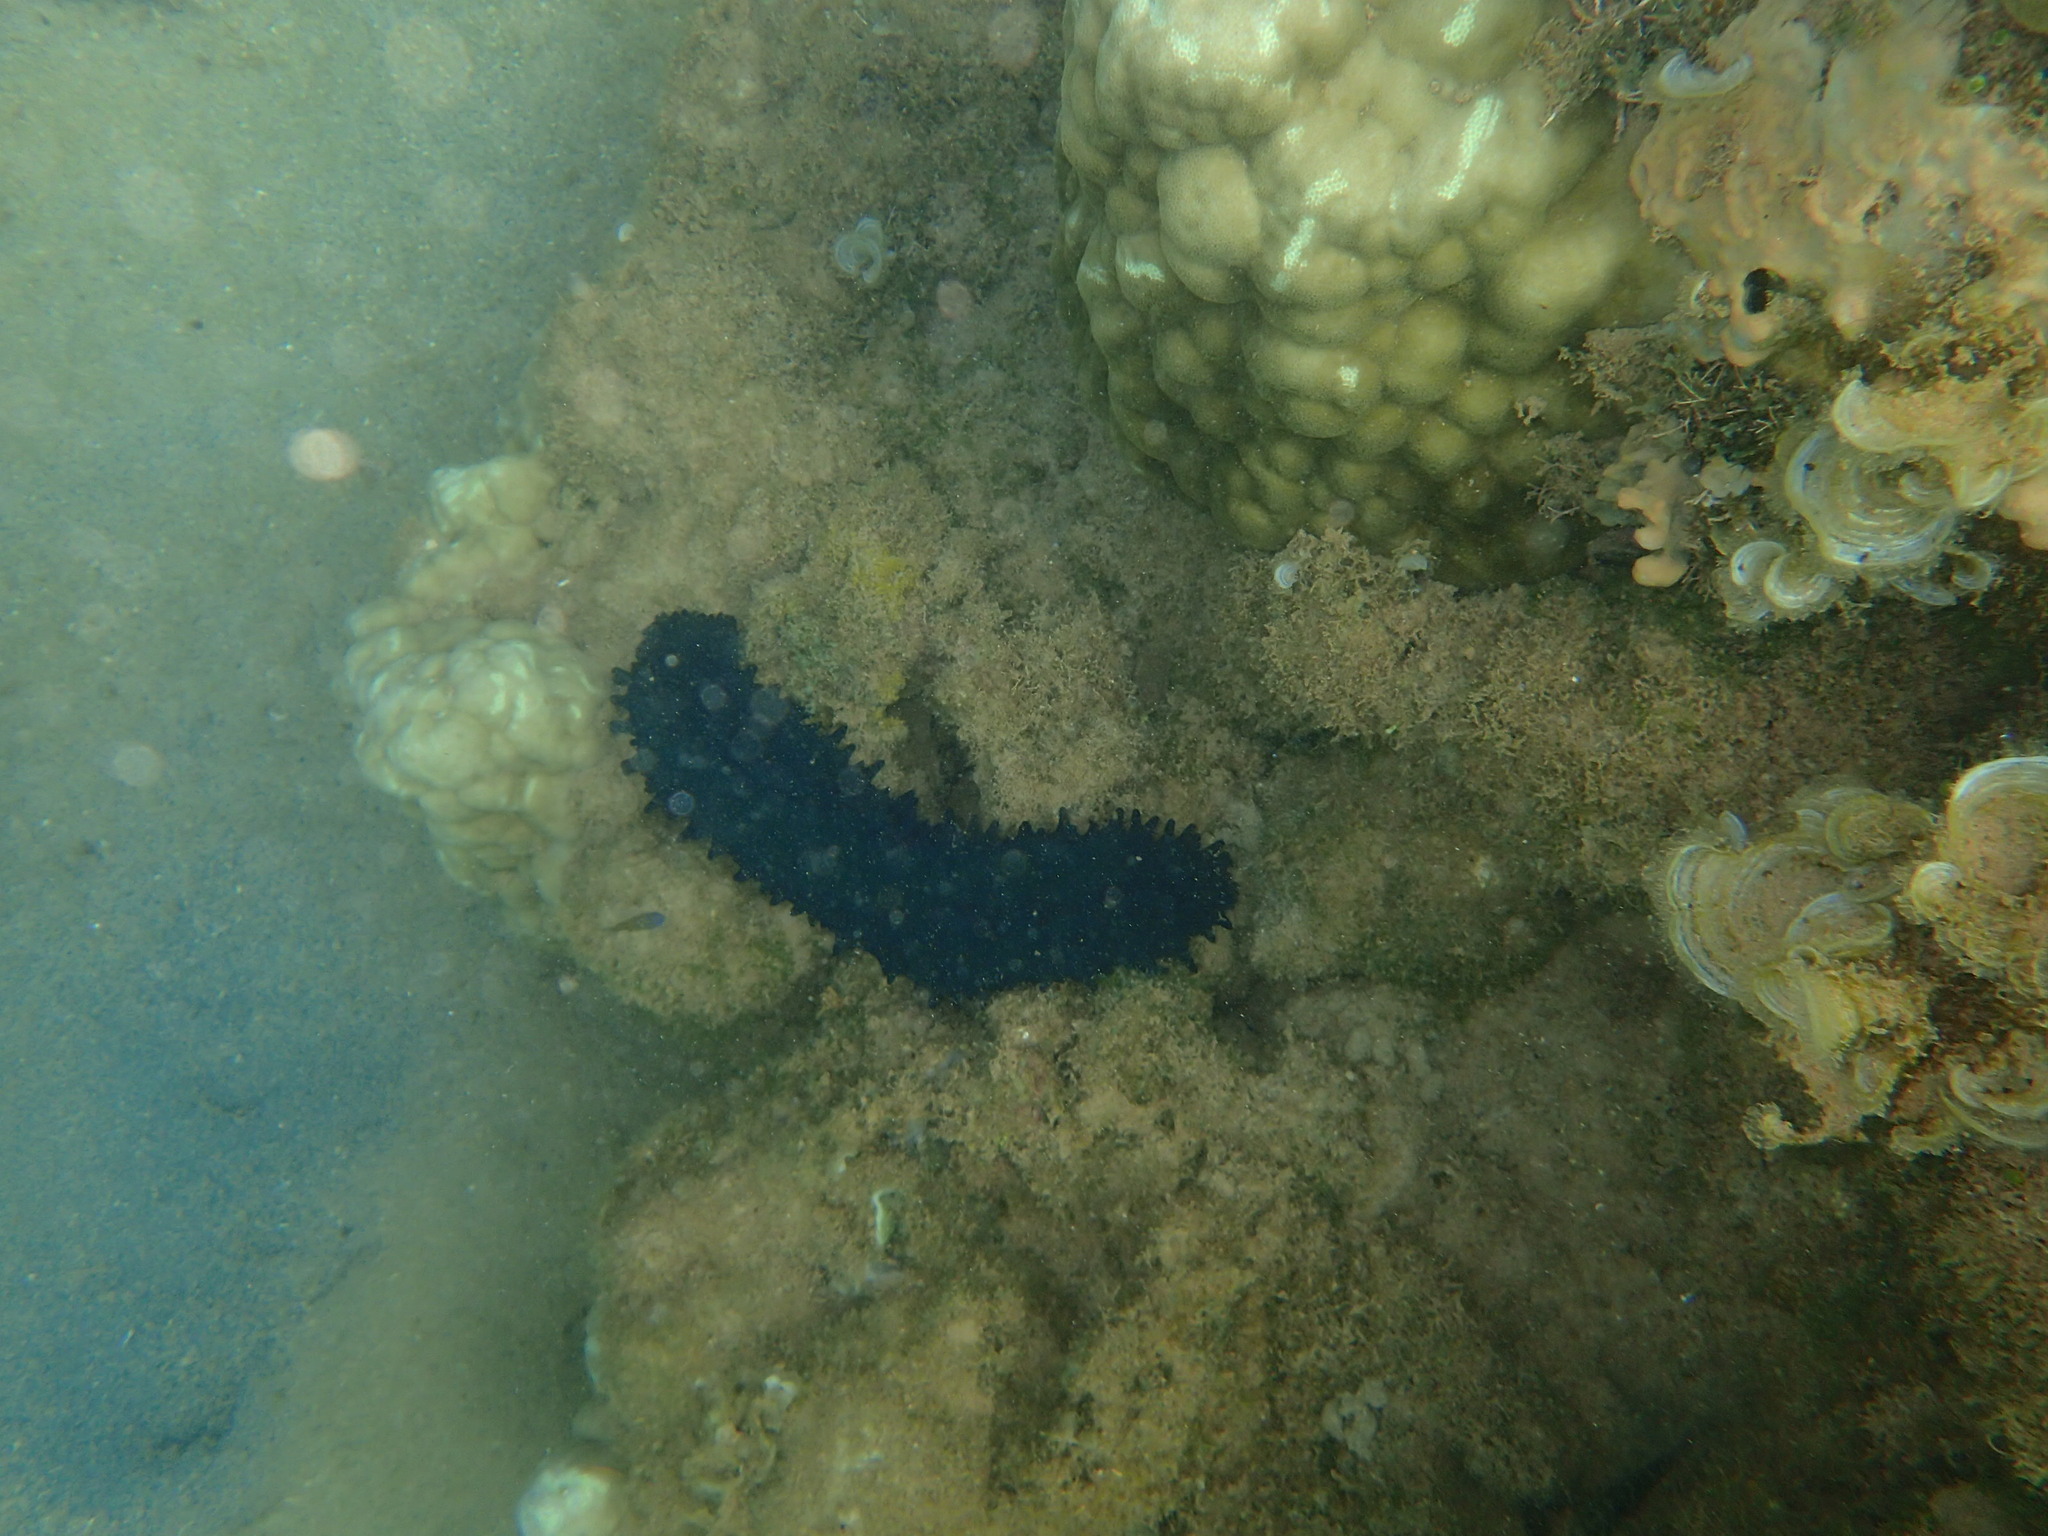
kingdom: Animalia
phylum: Echinodermata
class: Holothuroidea
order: Synallactida
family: Stichopodidae
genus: Stichopus
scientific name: Stichopus chloronotus
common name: Greenfish
